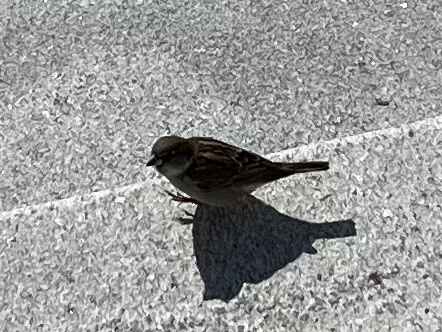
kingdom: Animalia
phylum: Chordata
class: Aves
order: Passeriformes
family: Passeridae
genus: Passer
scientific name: Passer domesticus
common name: House sparrow
